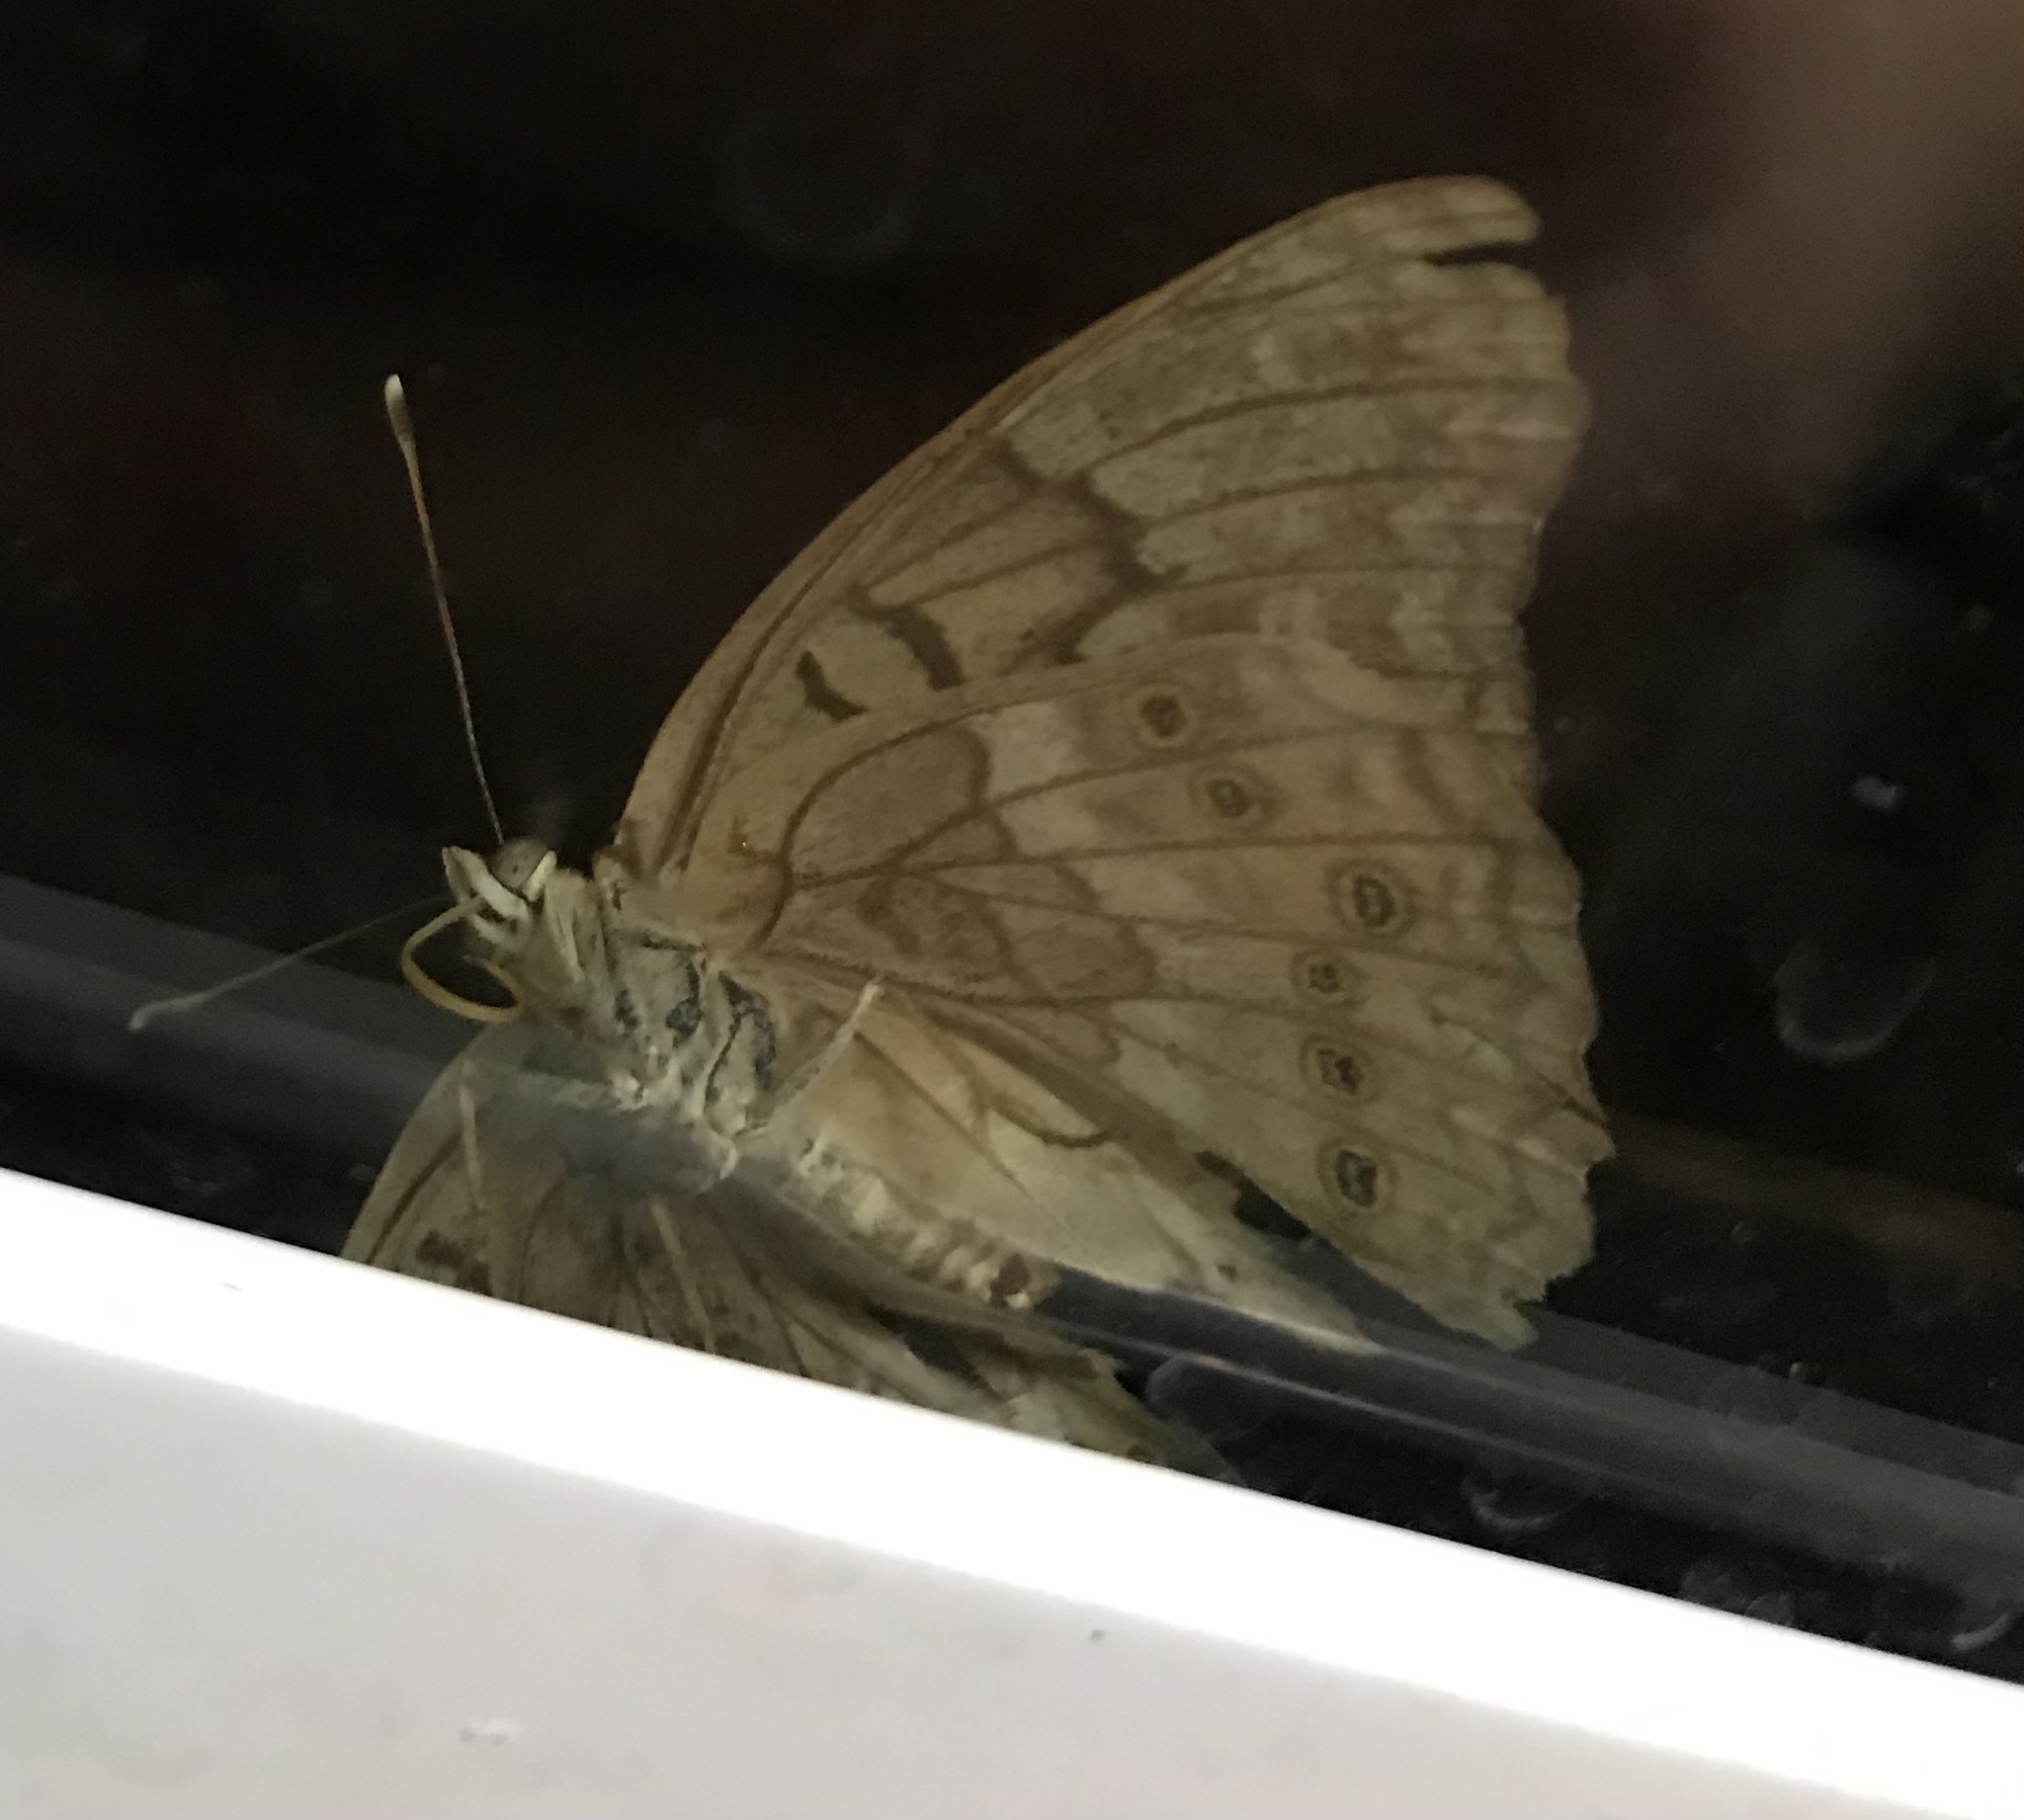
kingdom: Animalia
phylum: Arthropoda
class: Insecta
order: Lepidoptera
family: Nymphalidae
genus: Asterocampa
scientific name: Asterocampa clyton
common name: Tawny emperor
